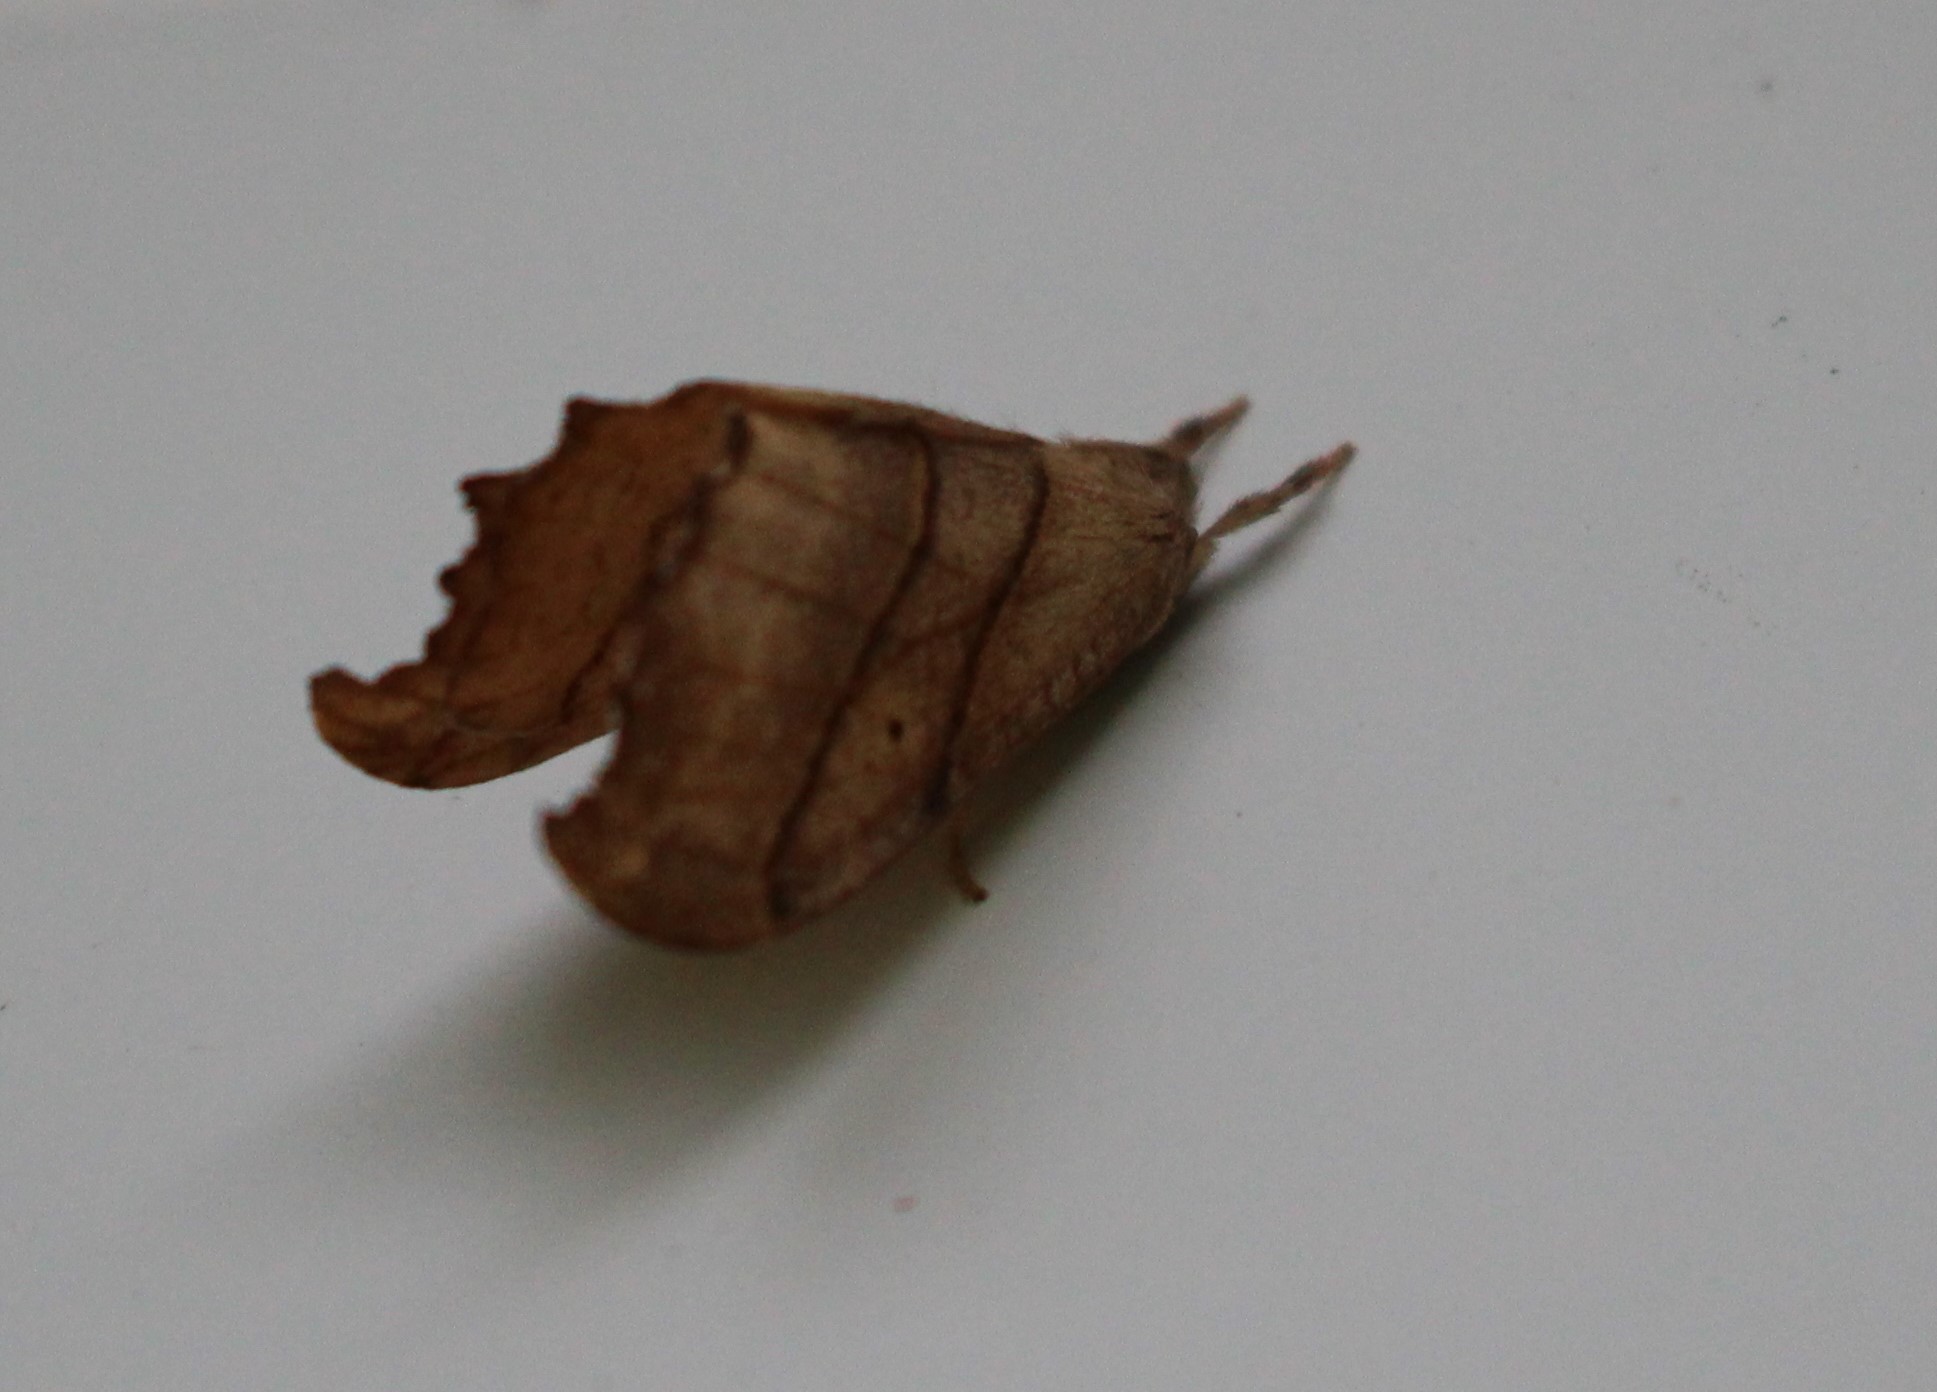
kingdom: Animalia
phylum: Arthropoda
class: Insecta
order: Lepidoptera
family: Drepanidae
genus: Falcaria
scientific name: Falcaria bilineata
